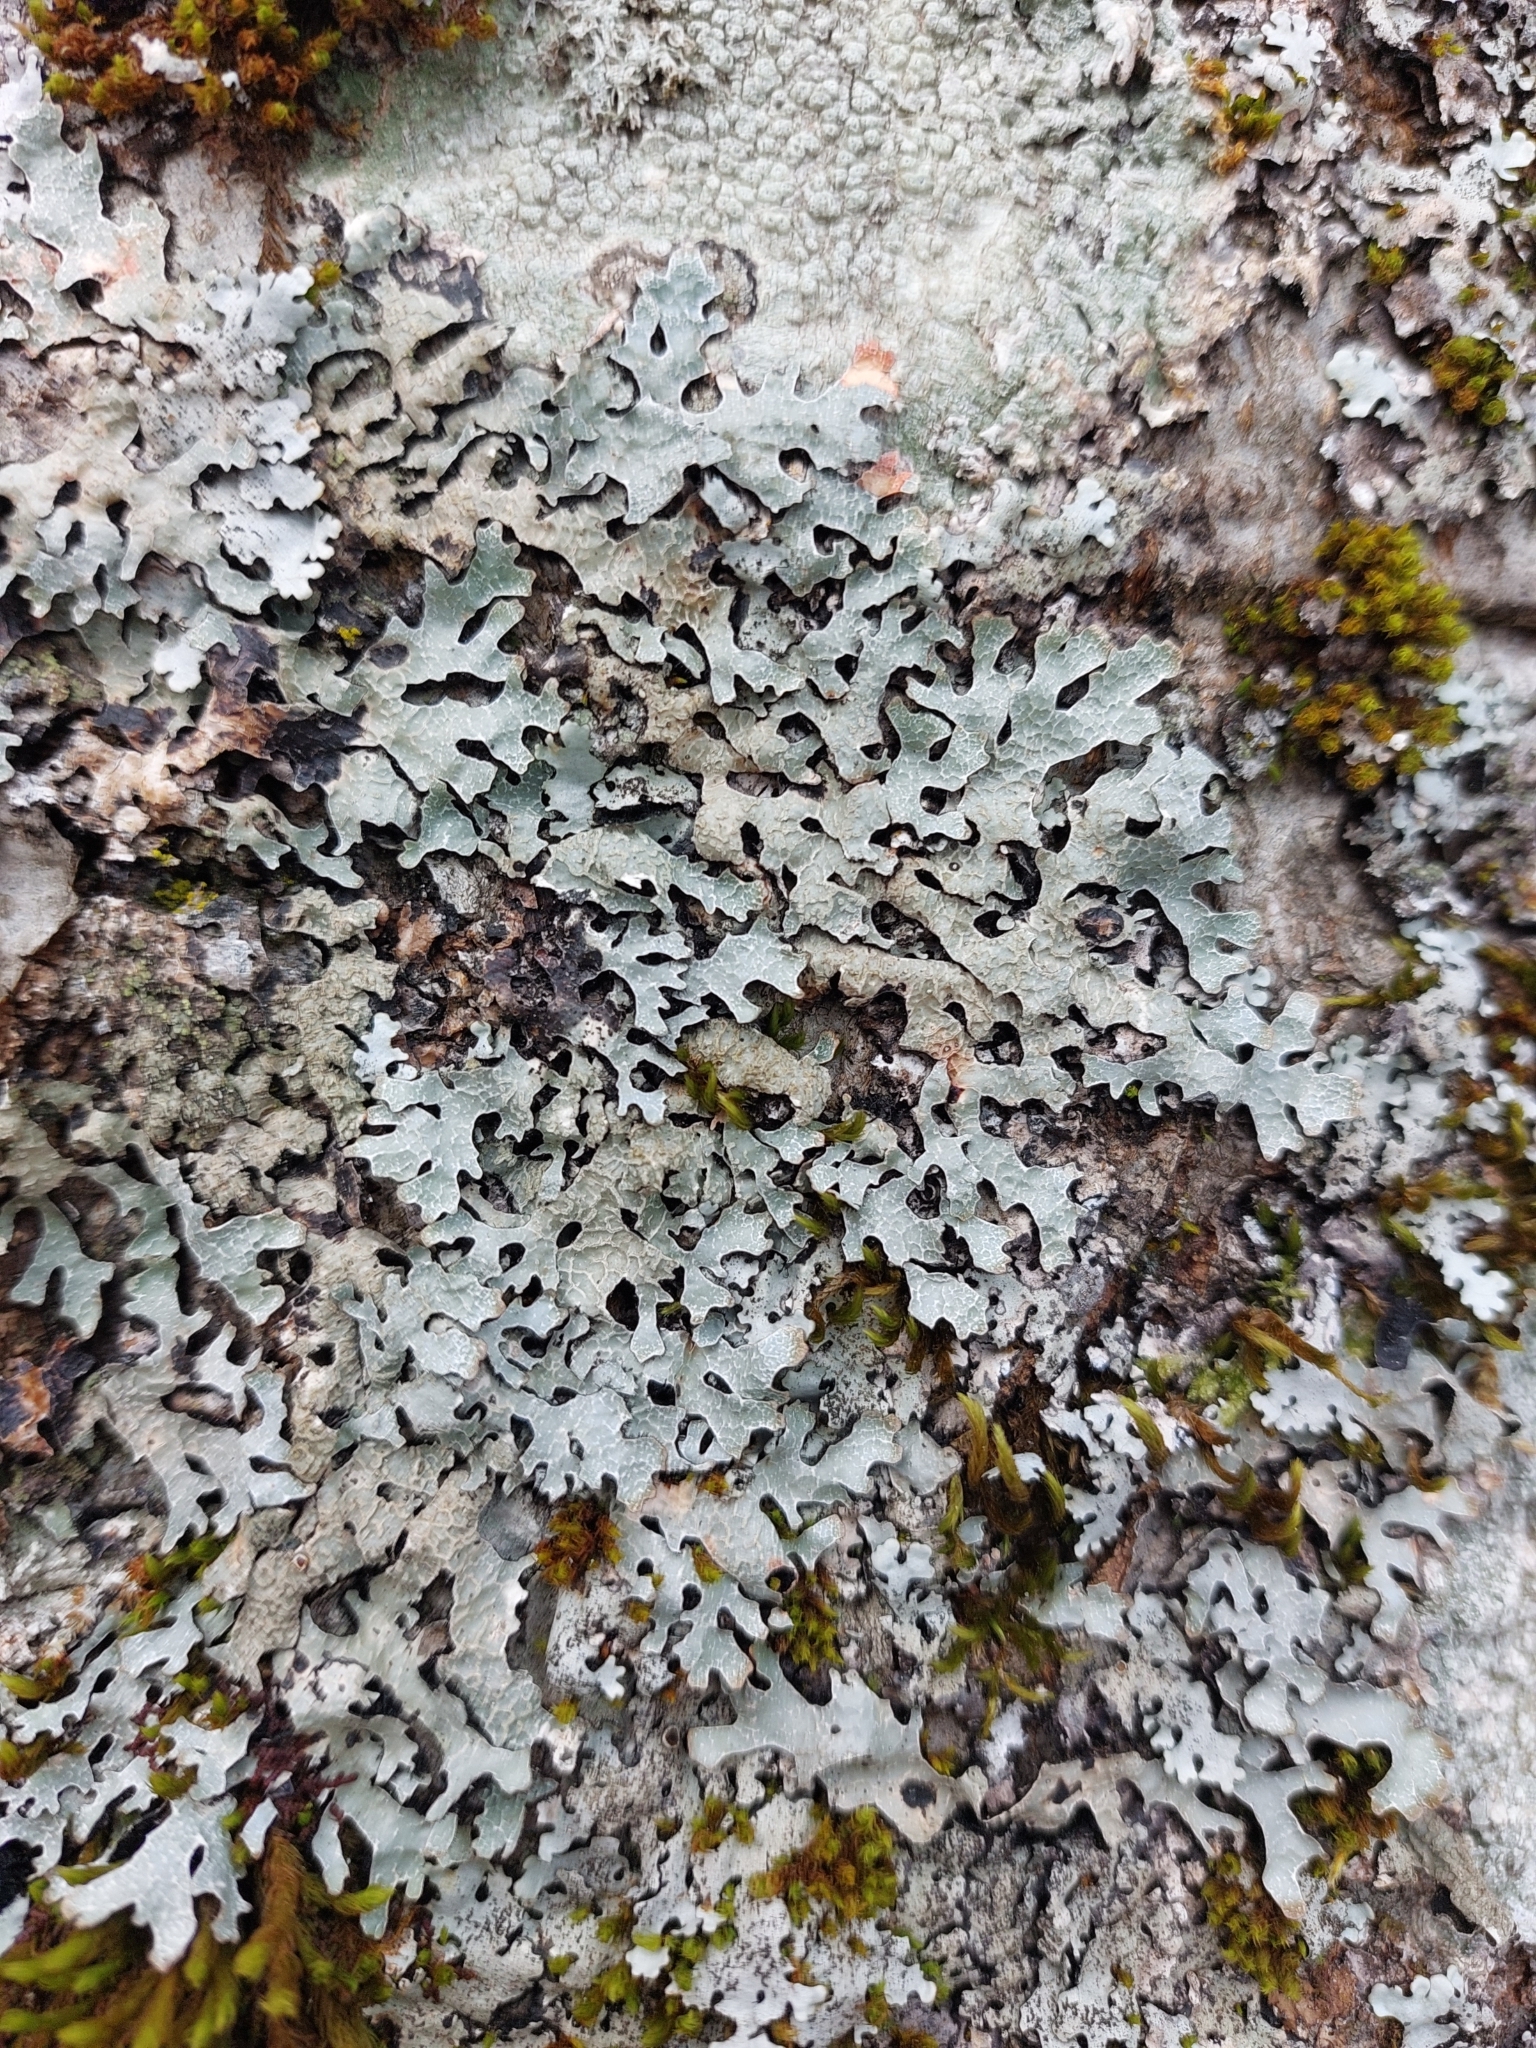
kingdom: Fungi
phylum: Ascomycota
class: Lecanoromycetes
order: Lecanorales
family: Parmeliaceae
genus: Parmelia
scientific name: Parmelia sulcata
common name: Netted shield lichen
